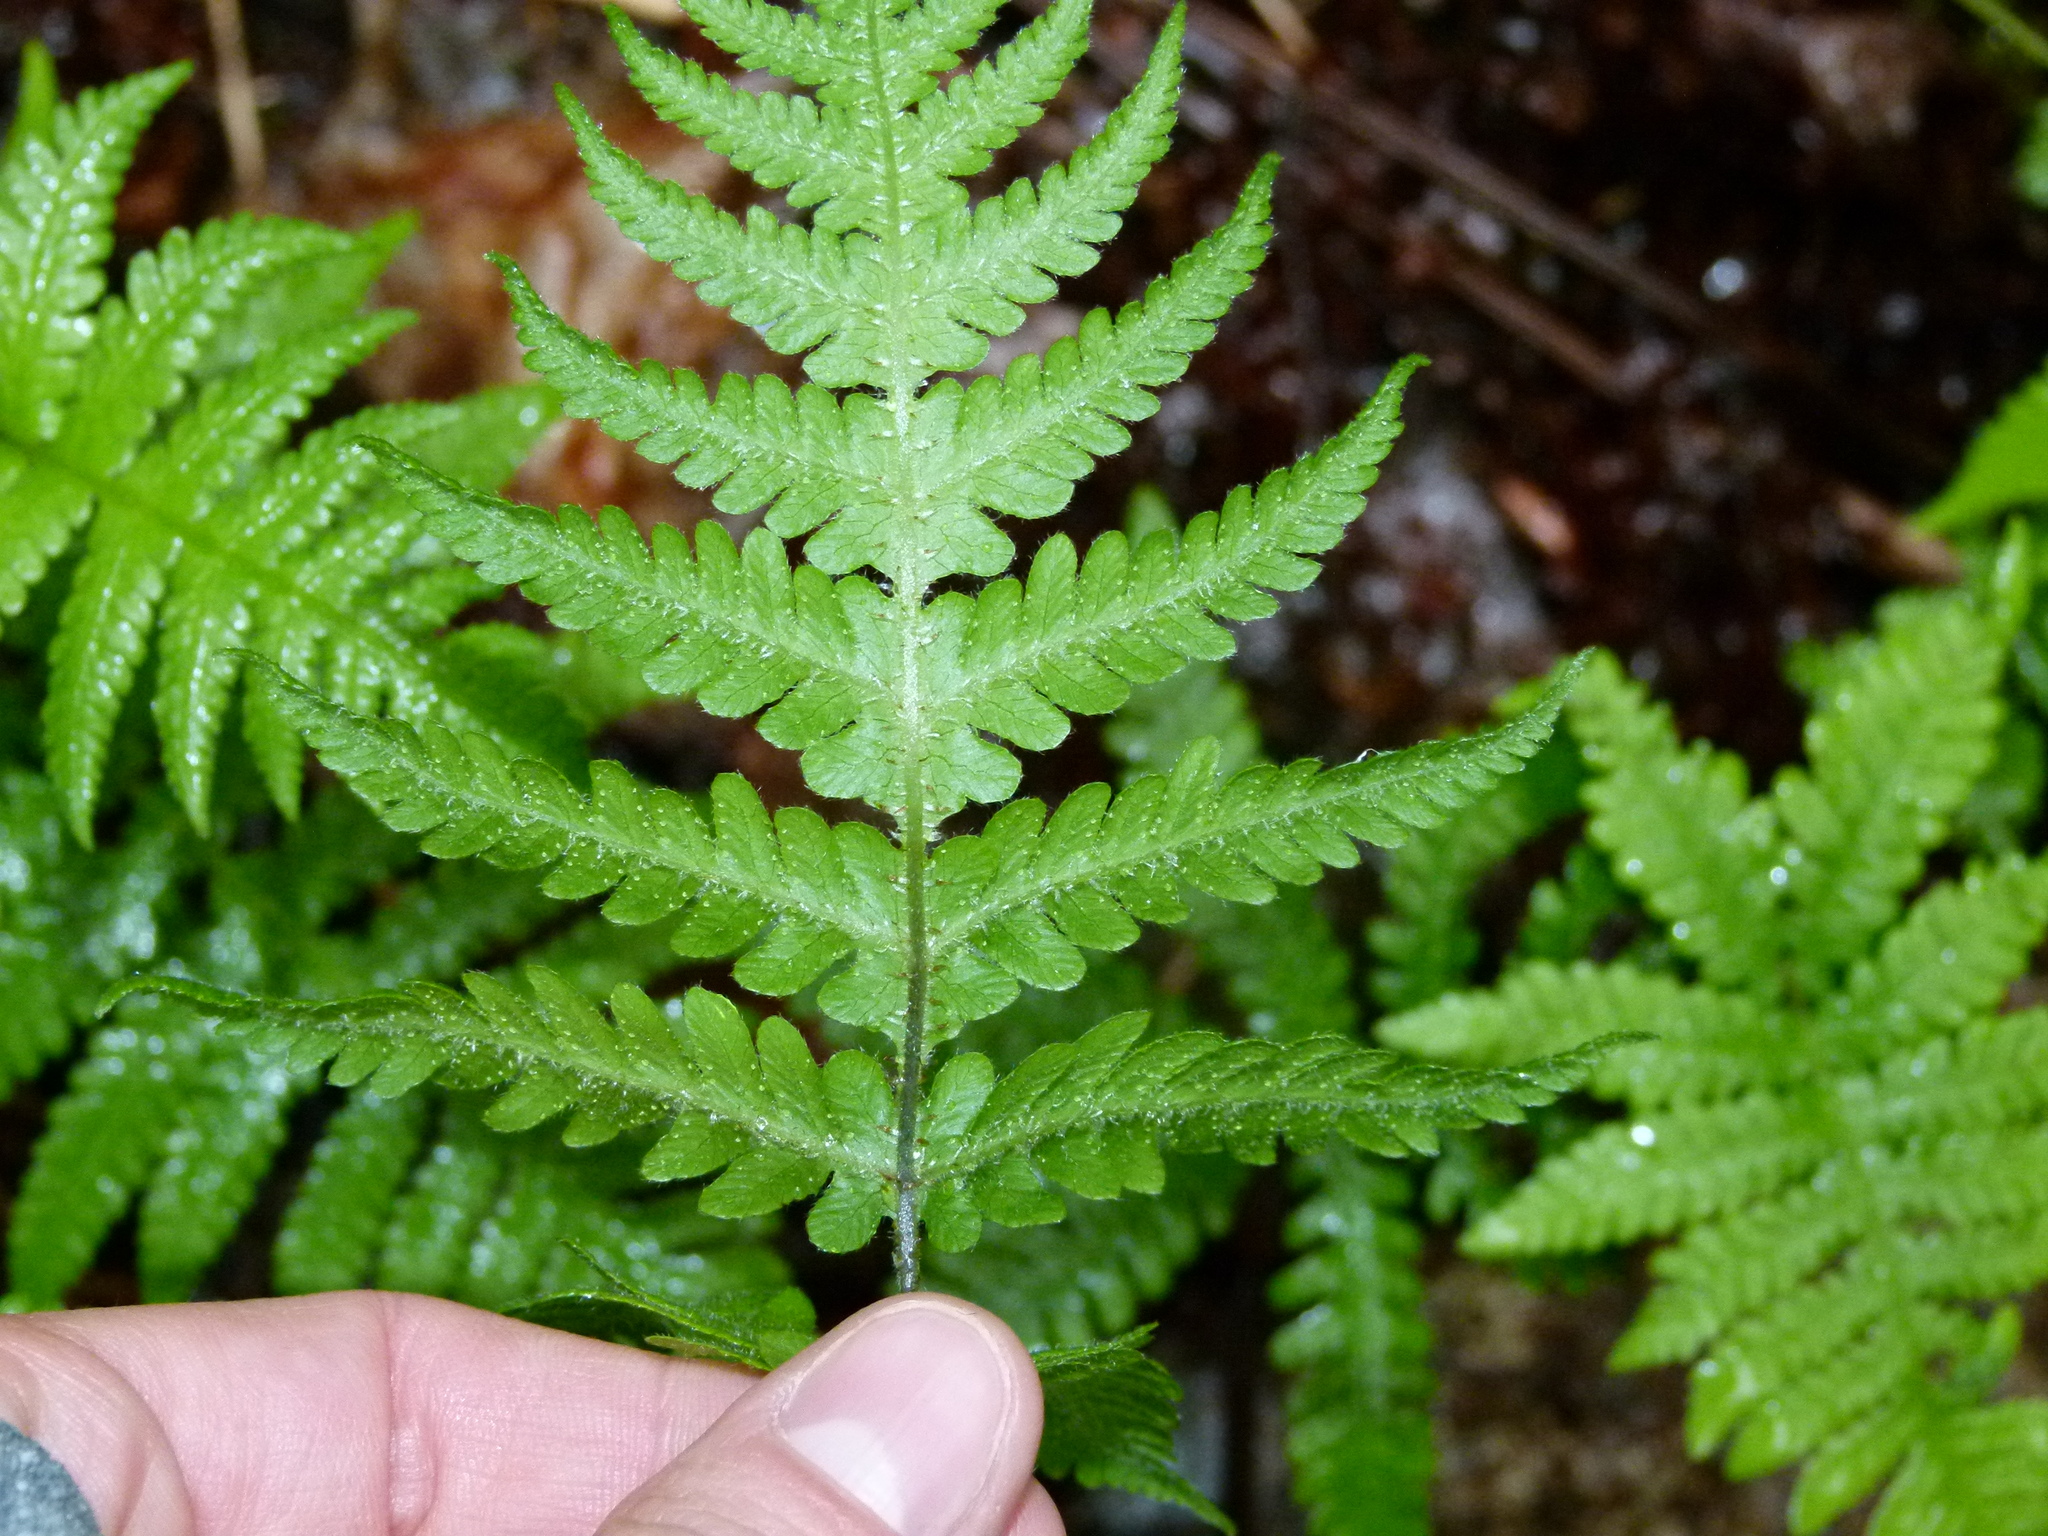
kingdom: Plantae
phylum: Tracheophyta
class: Polypodiopsida
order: Polypodiales
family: Thelypteridaceae
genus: Phegopteris
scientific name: Phegopteris connectilis
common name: Beech fern
